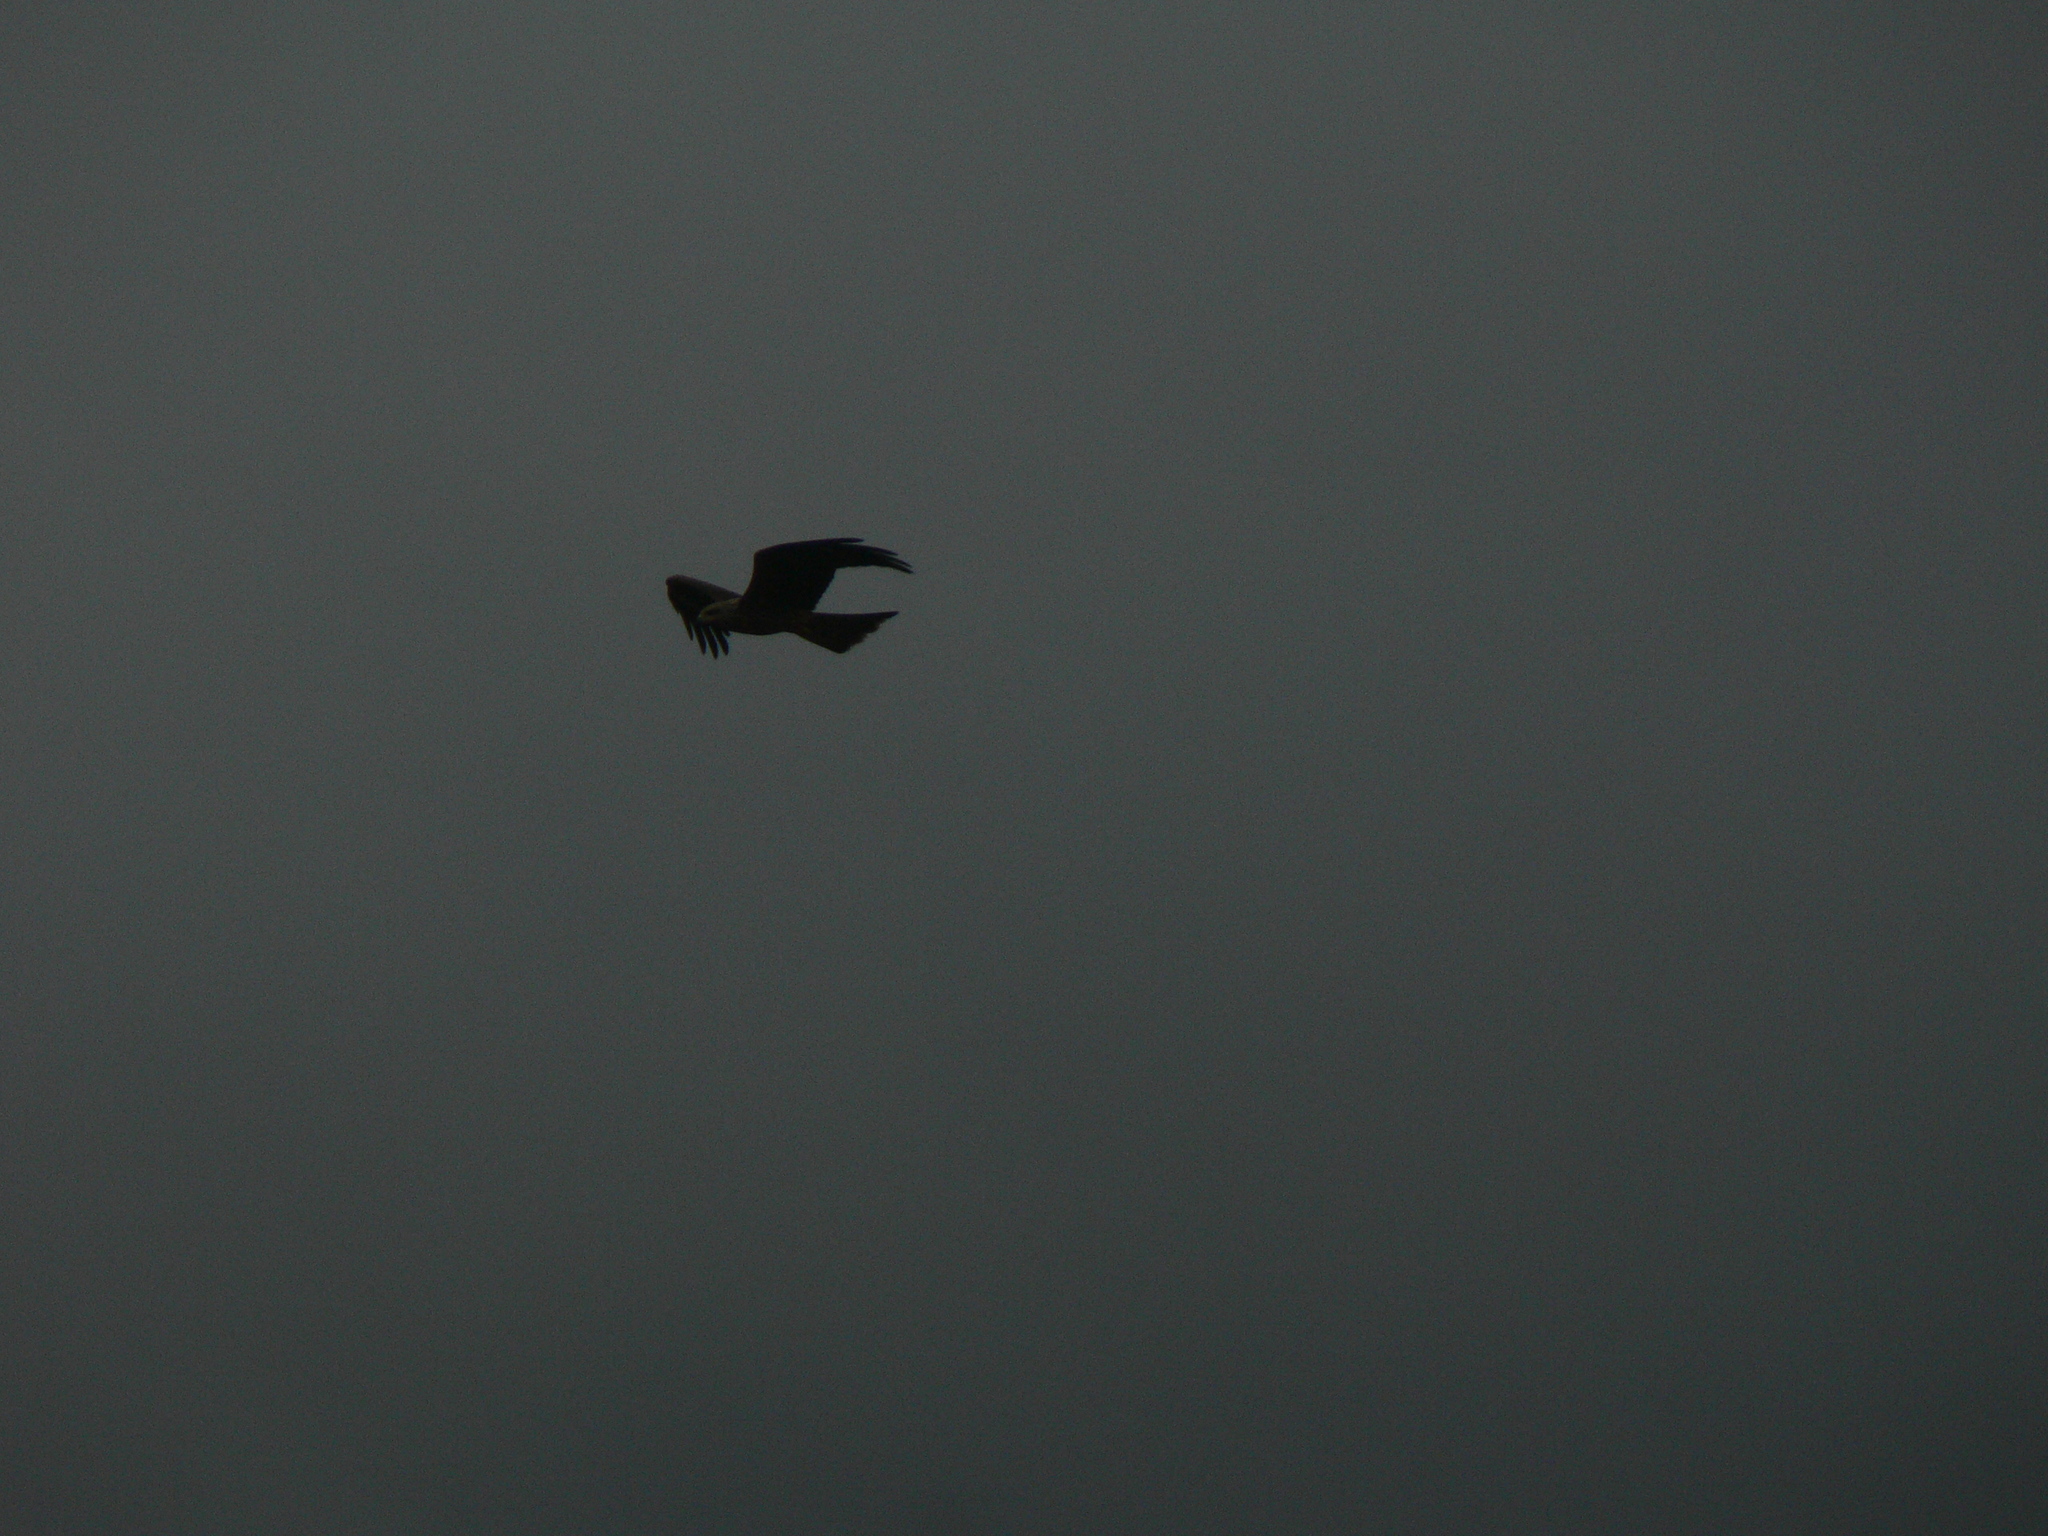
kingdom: Animalia
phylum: Chordata
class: Aves
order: Accipitriformes
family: Accipitridae
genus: Milvus
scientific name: Milvus migrans
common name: Black kite
